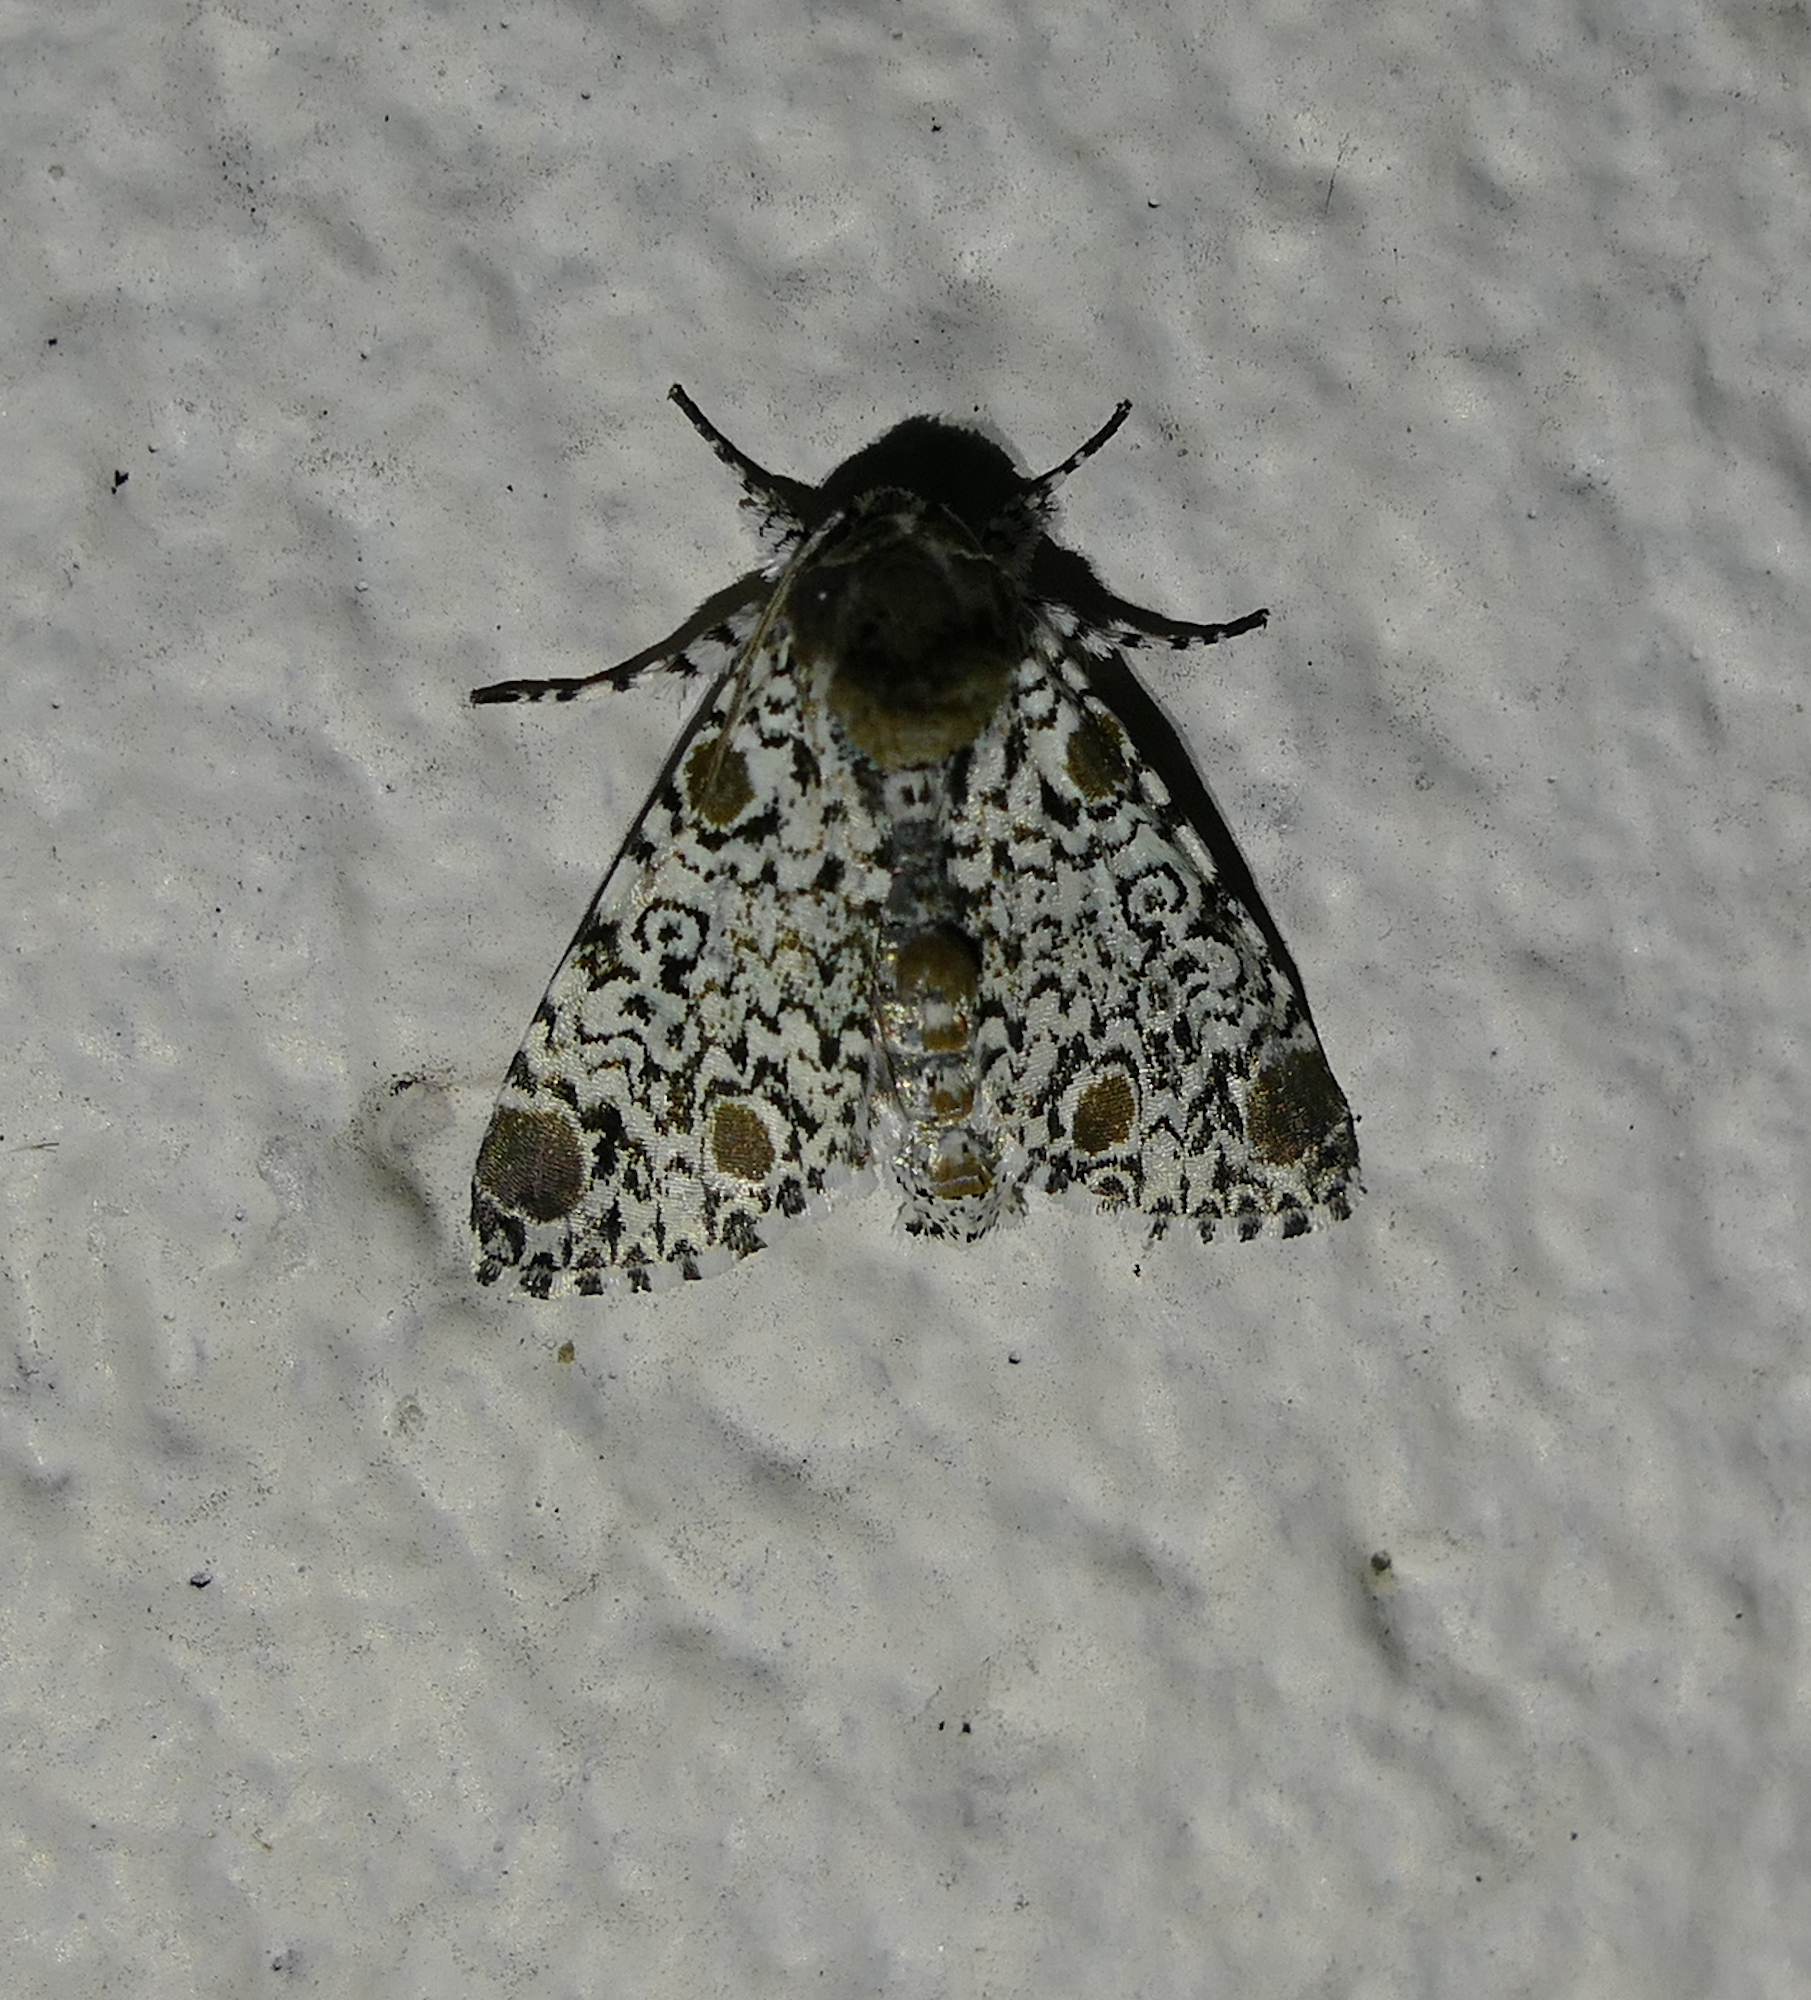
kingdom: Animalia
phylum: Arthropoda
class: Insecta
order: Lepidoptera
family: Noctuidae
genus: Harrisimemna
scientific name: Harrisimemna trisignata
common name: Harris threespot
